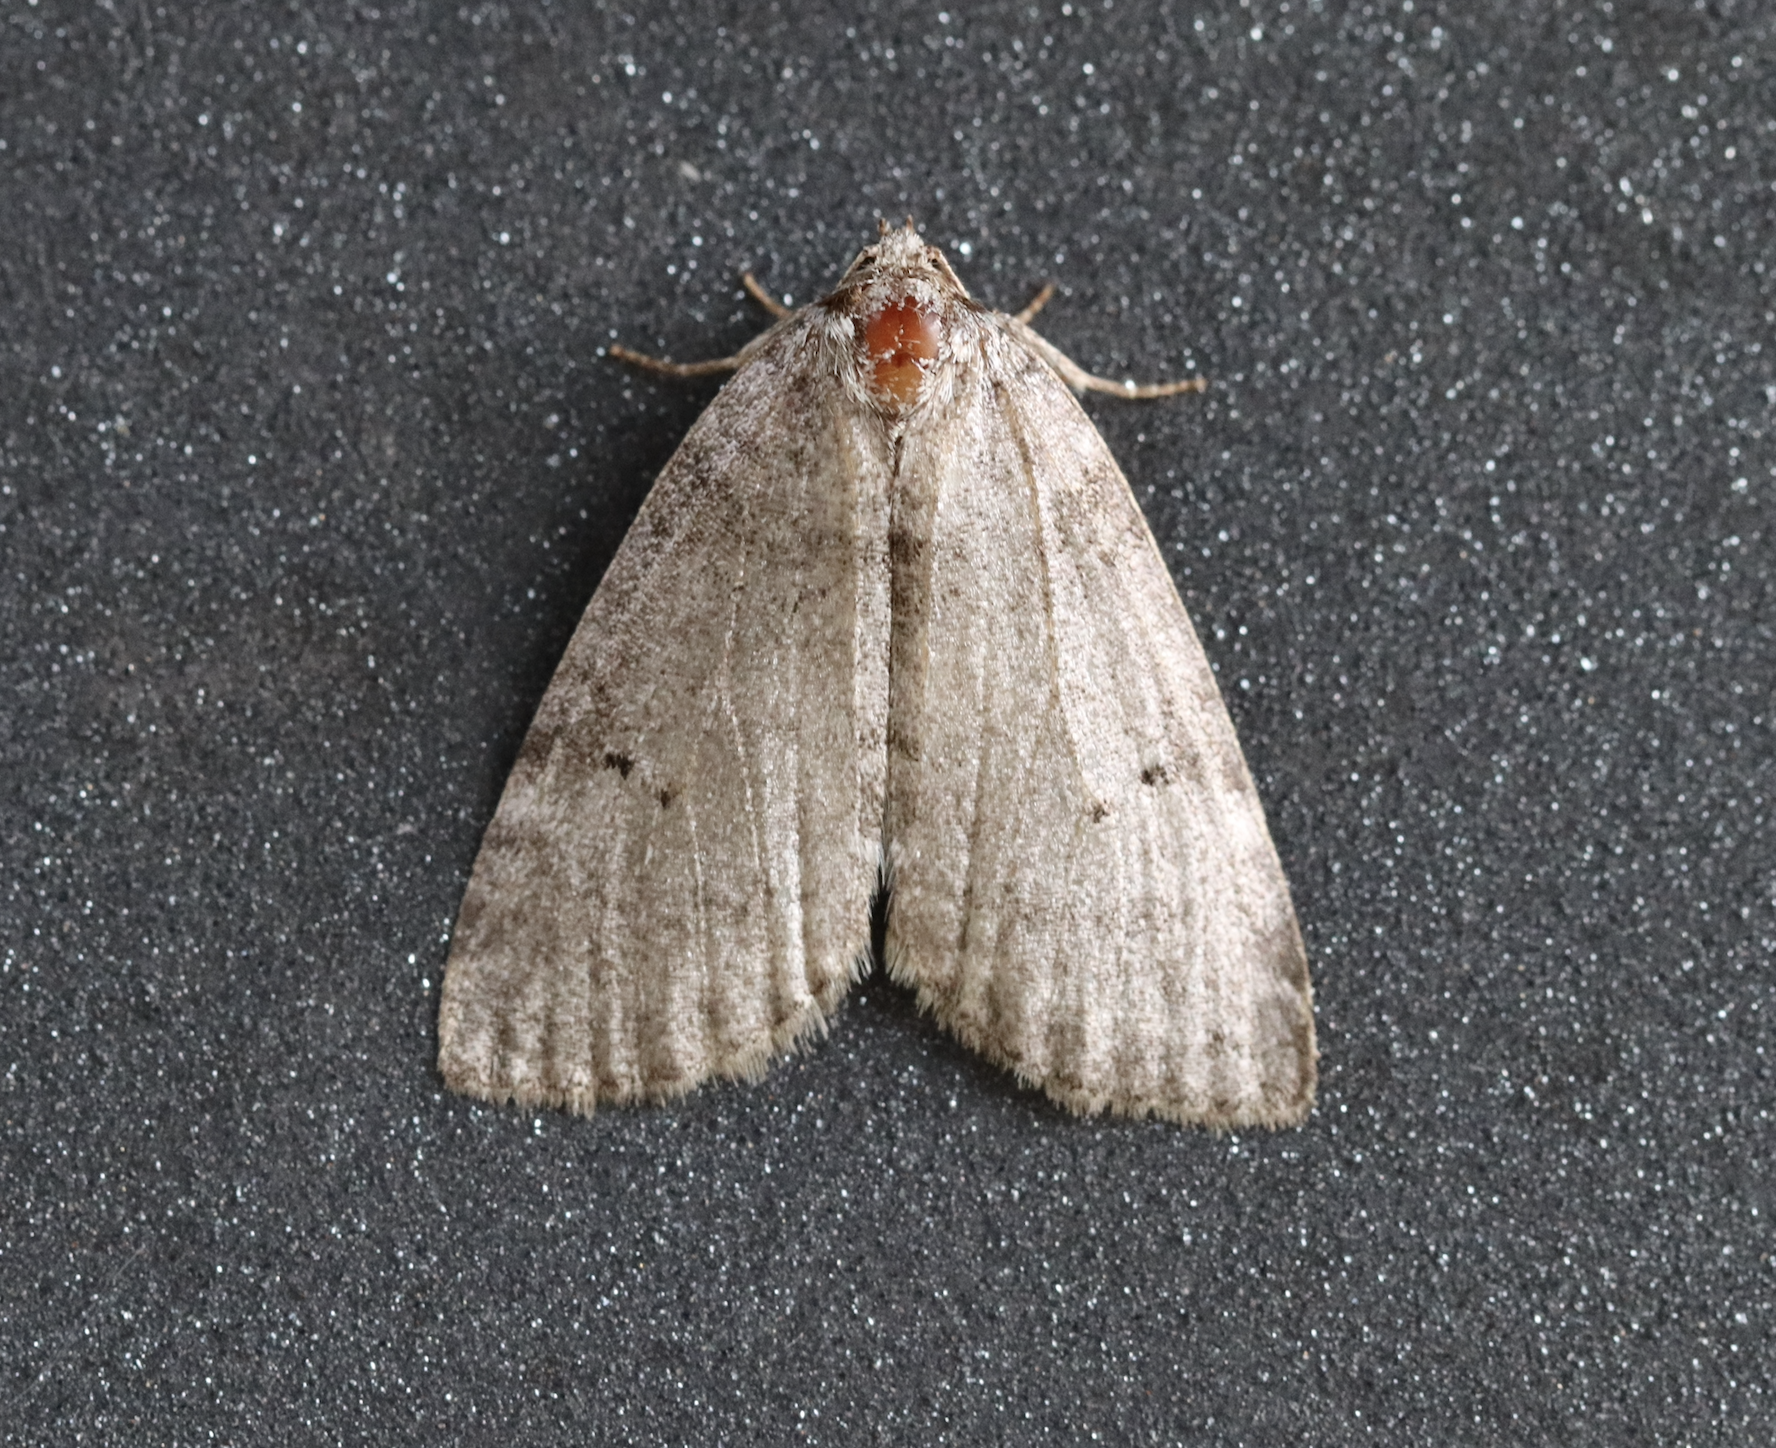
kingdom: Animalia
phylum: Arthropoda
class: Insecta
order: Lepidoptera
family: Drepanidae
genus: Ochropacha
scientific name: Ochropacha duplaris
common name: Common lutestring
